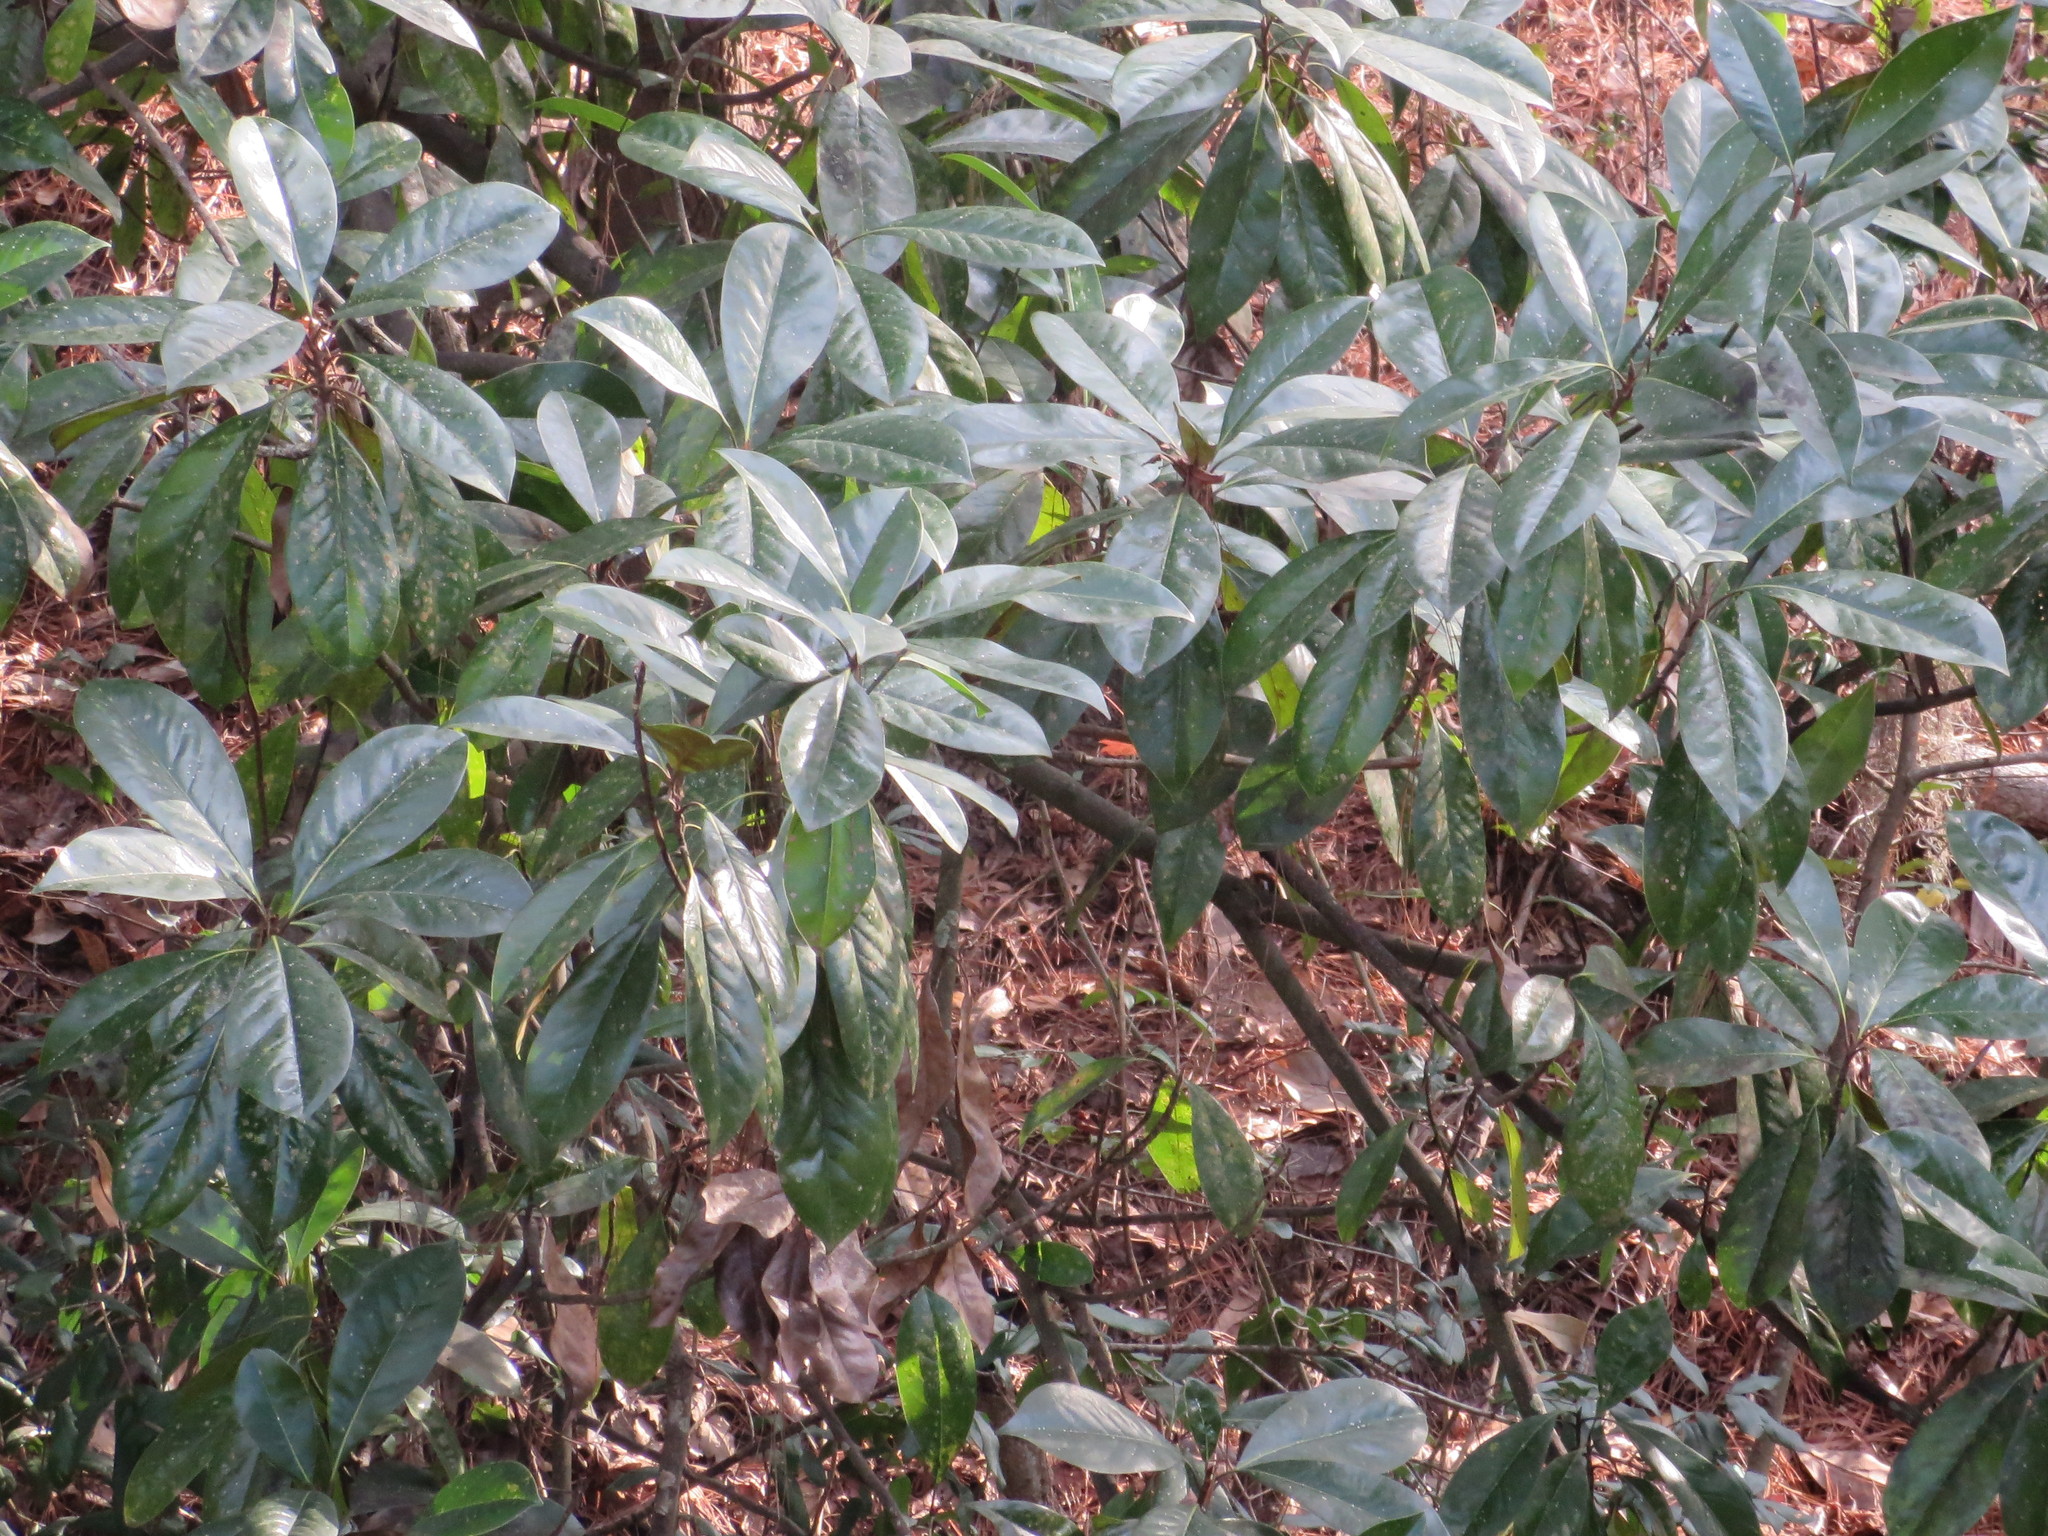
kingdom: Plantae
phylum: Tracheophyta
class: Magnoliopsida
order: Magnoliales
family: Magnoliaceae
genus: Magnolia
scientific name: Magnolia grandiflora
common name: Southern magnolia
